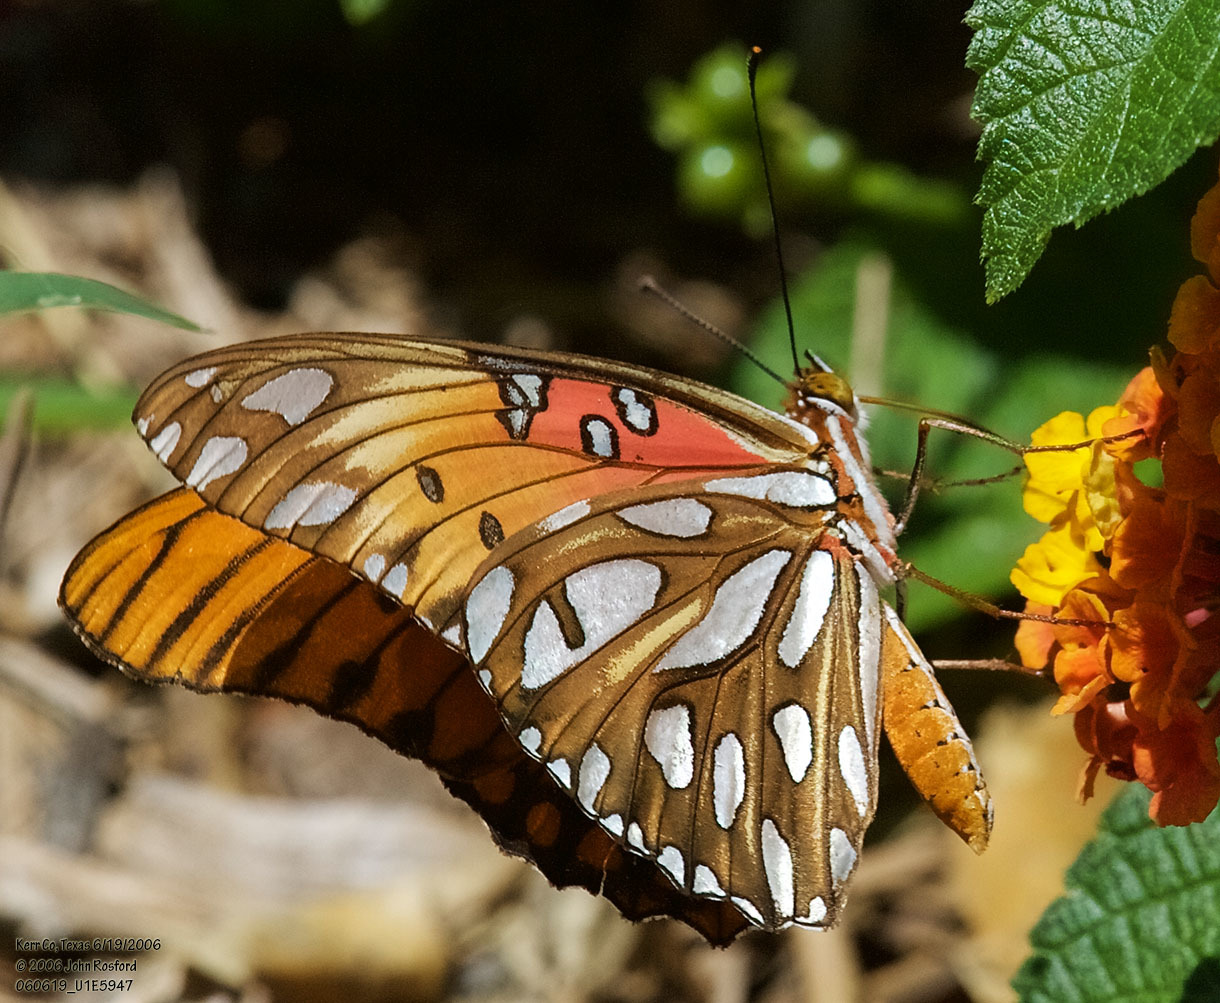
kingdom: Animalia
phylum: Arthropoda
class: Insecta
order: Lepidoptera
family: Nymphalidae
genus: Dione
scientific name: Dione vanillae
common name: Gulf fritillary
